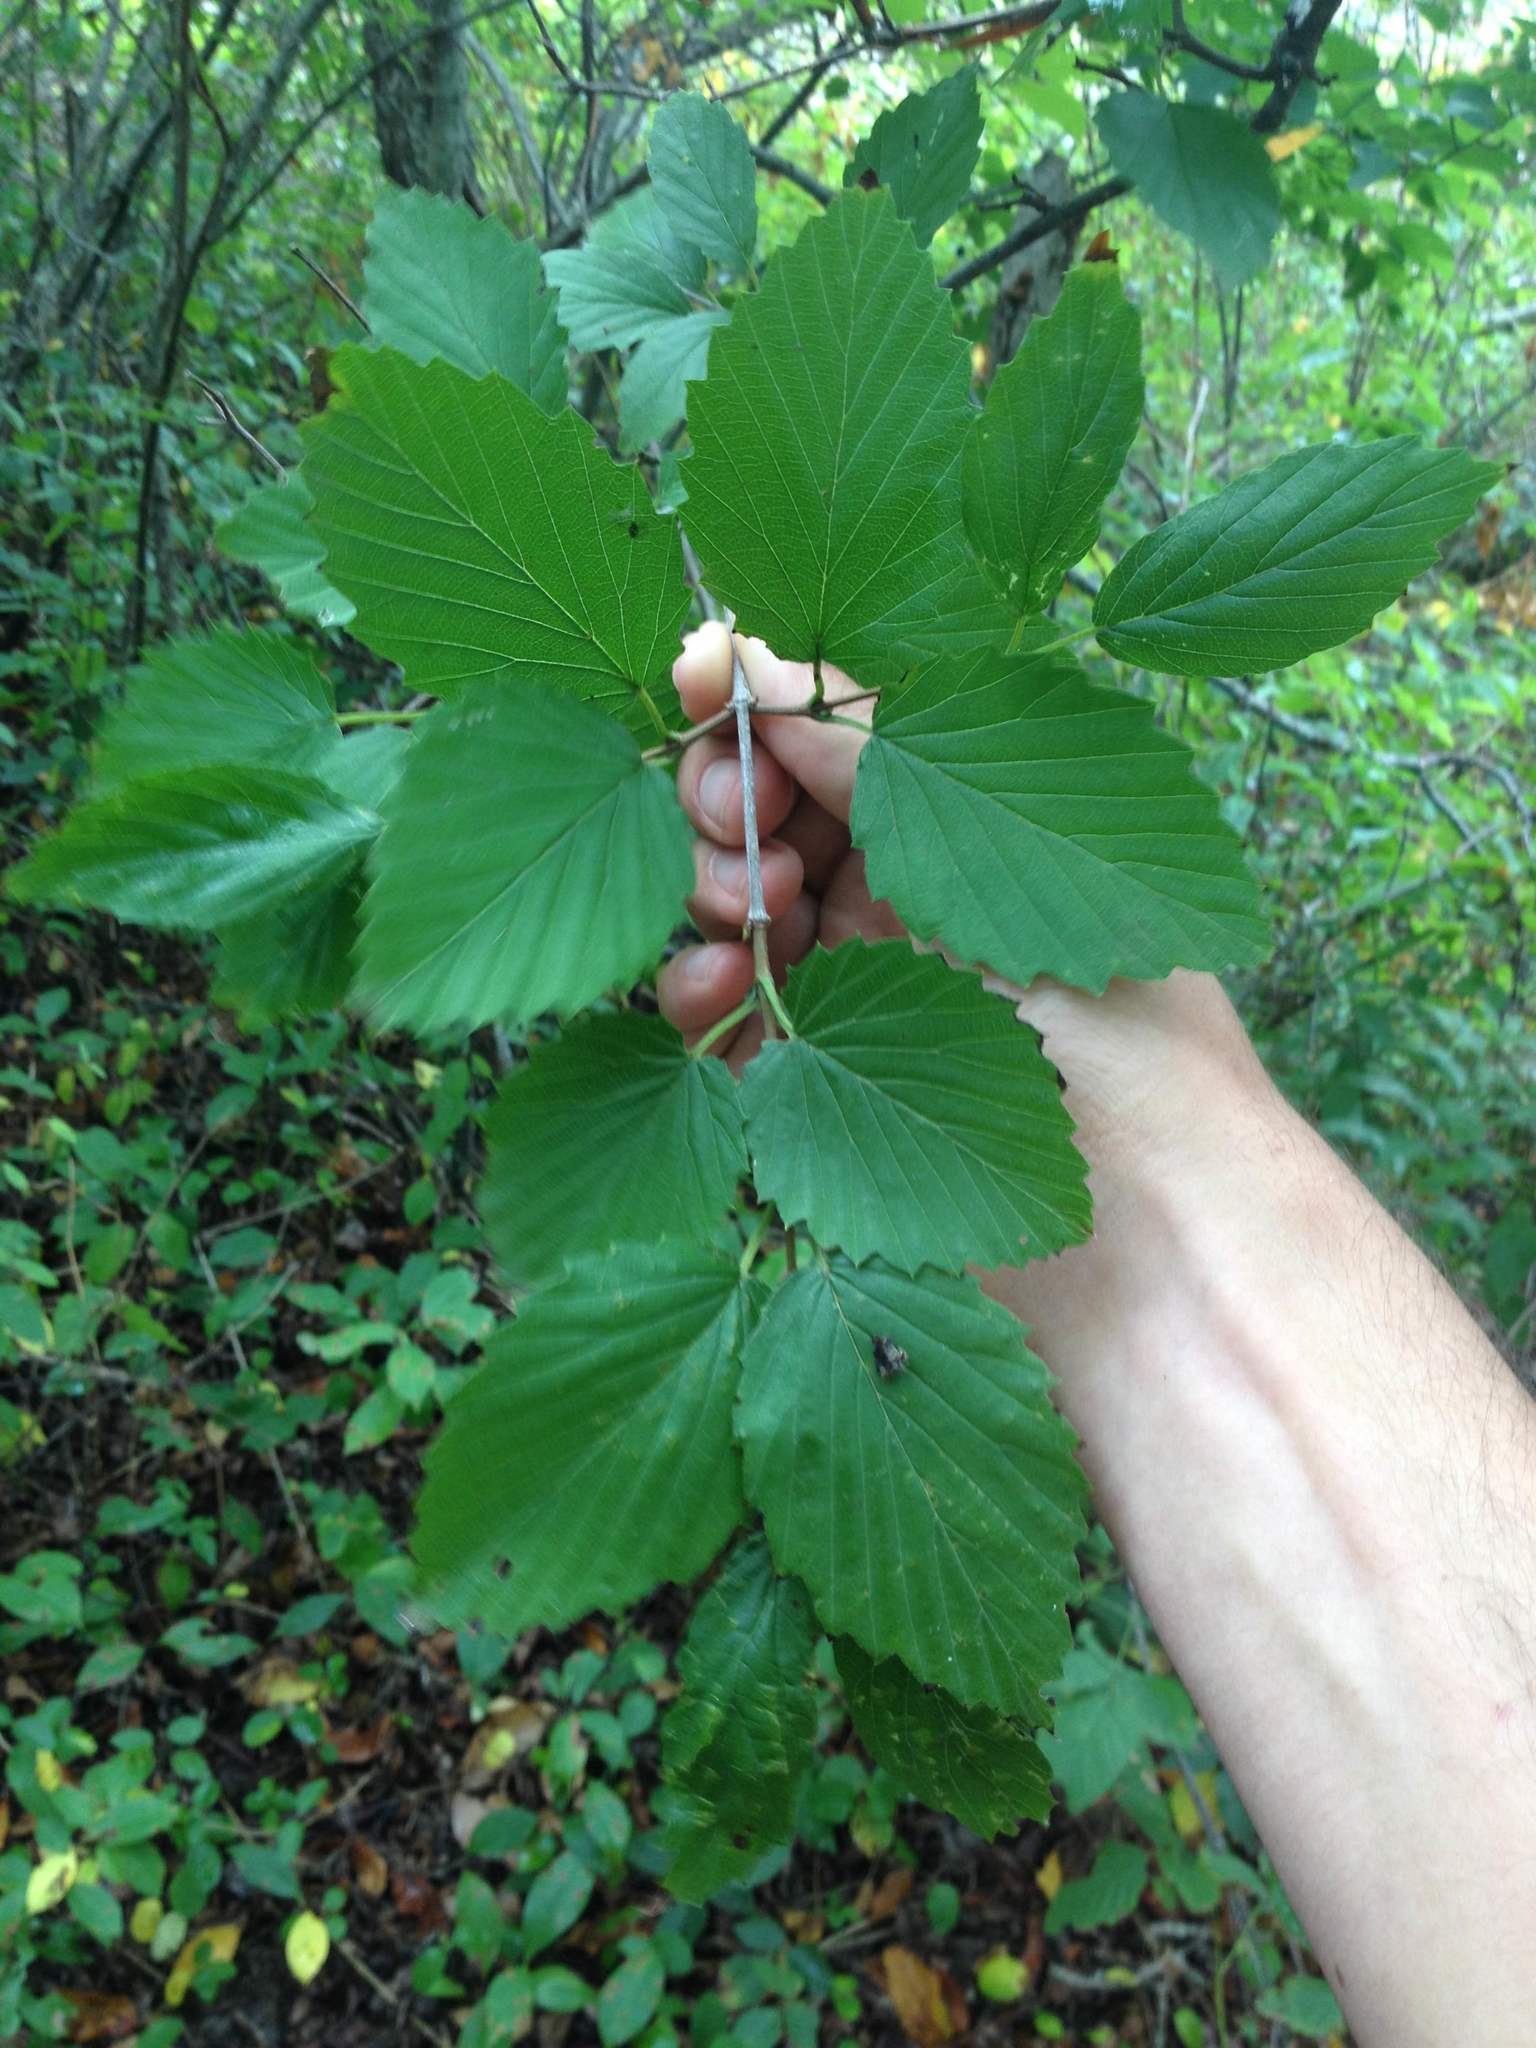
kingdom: Plantae
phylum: Tracheophyta
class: Magnoliopsida
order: Dipsacales
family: Viburnaceae
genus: Viburnum
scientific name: Viburnum dentatum
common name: Arrow-wood
